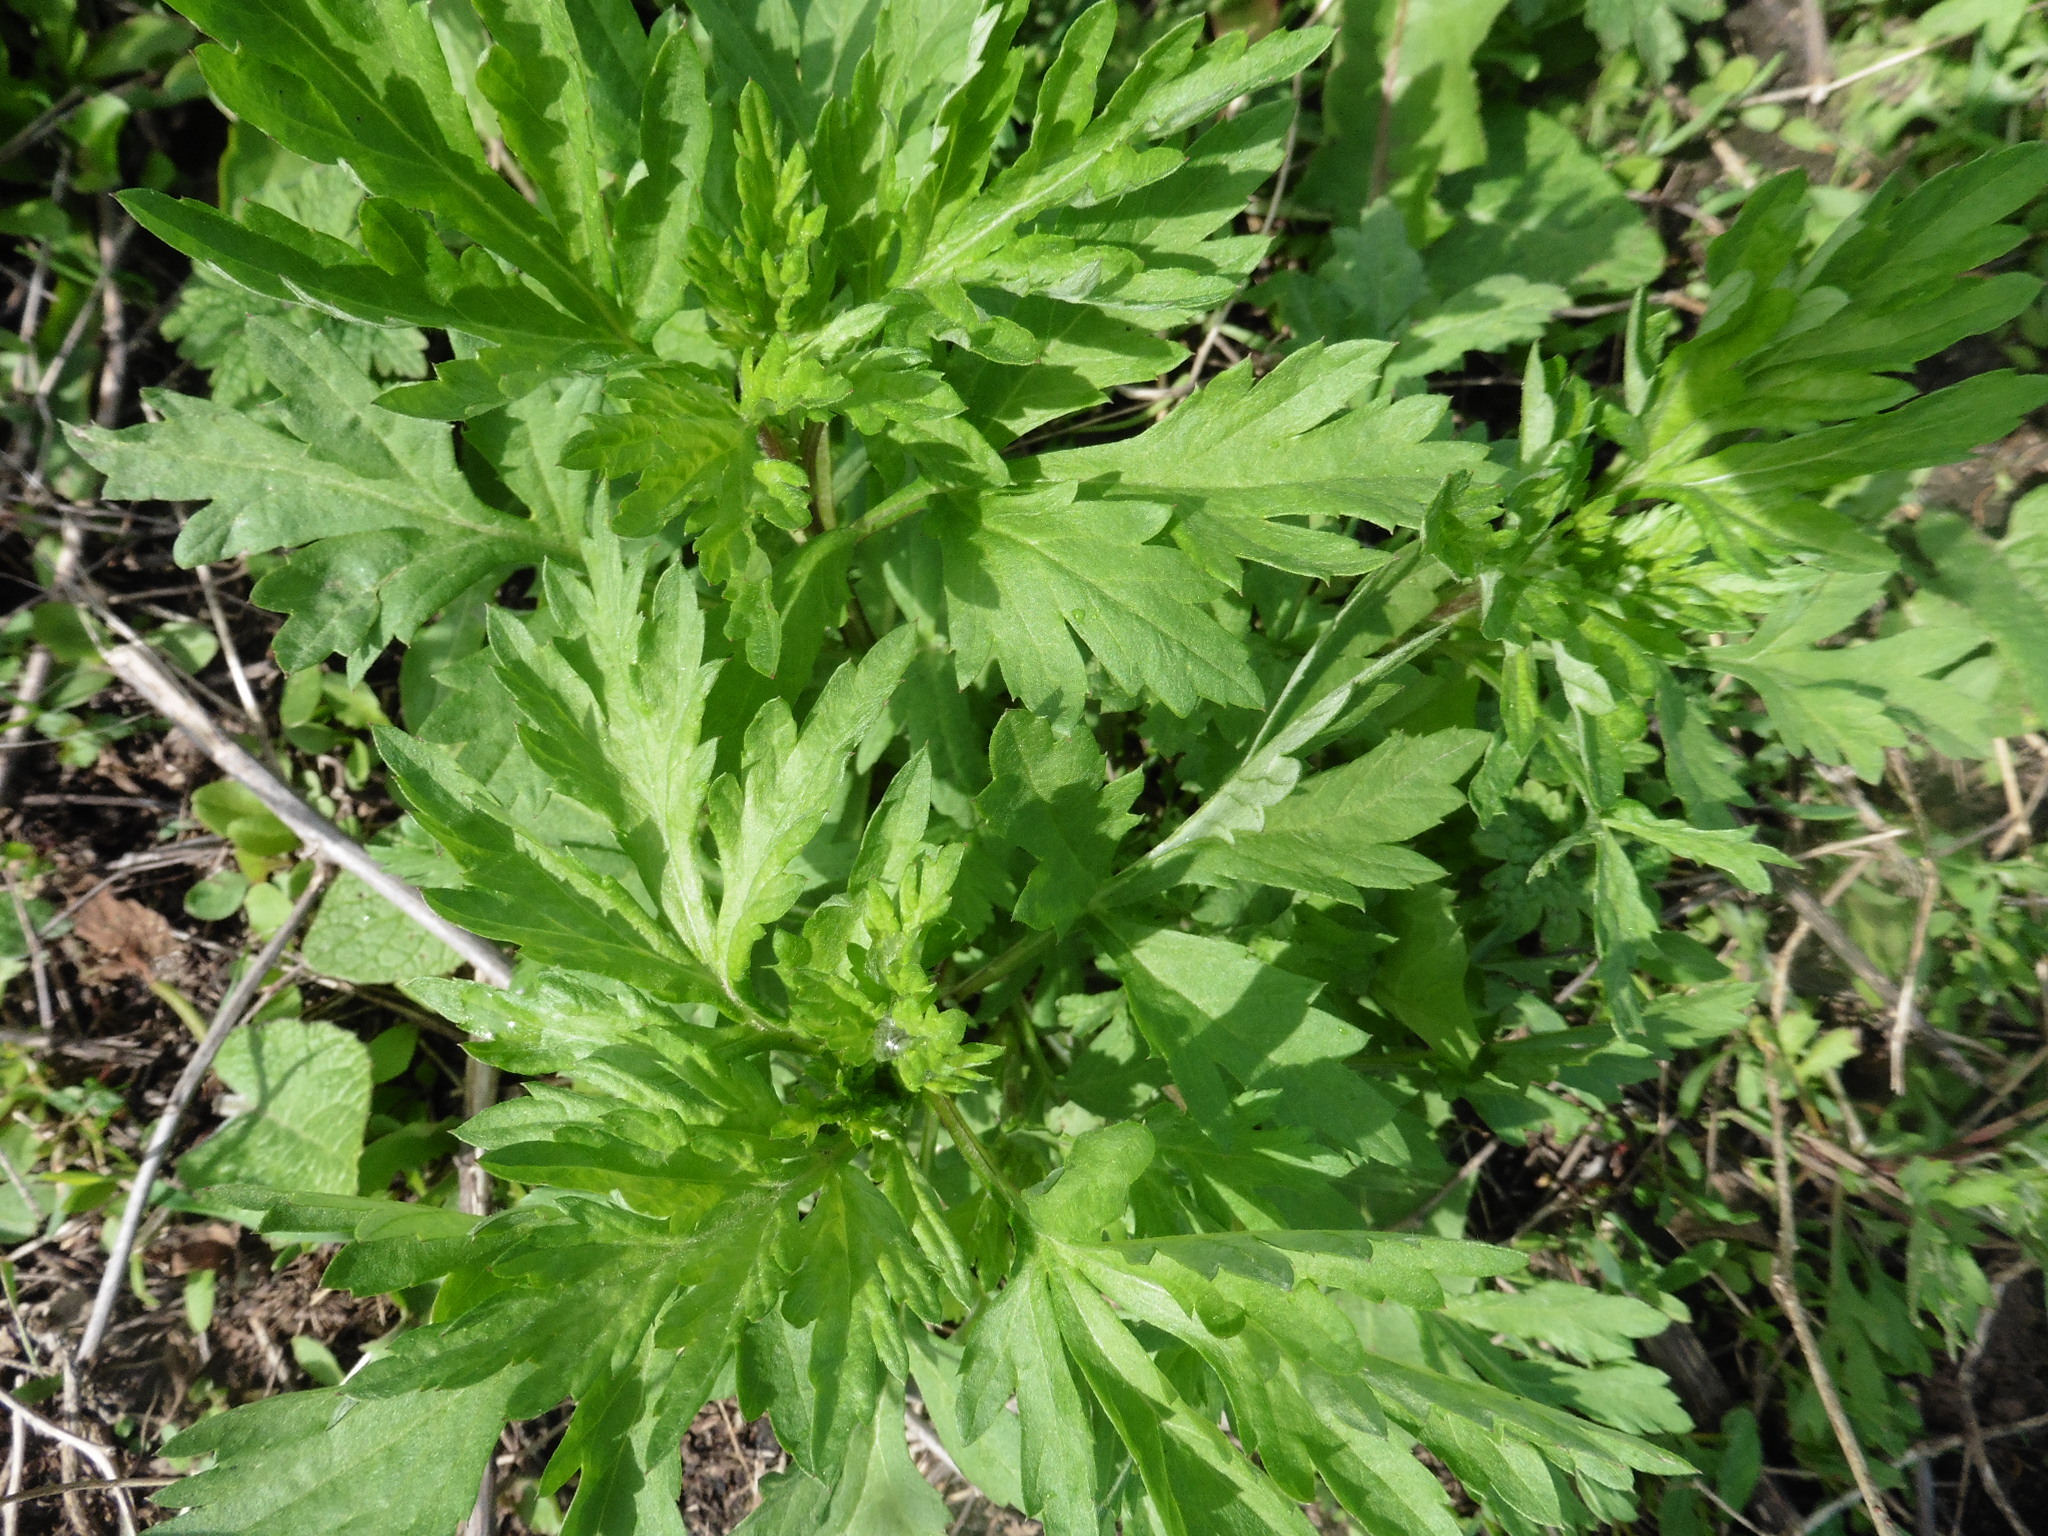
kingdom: Plantae
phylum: Tracheophyta
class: Magnoliopsida
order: Asterales
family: Asteraceae
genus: Artemisia
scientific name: Artemisia vulgaris
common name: Mugwort
